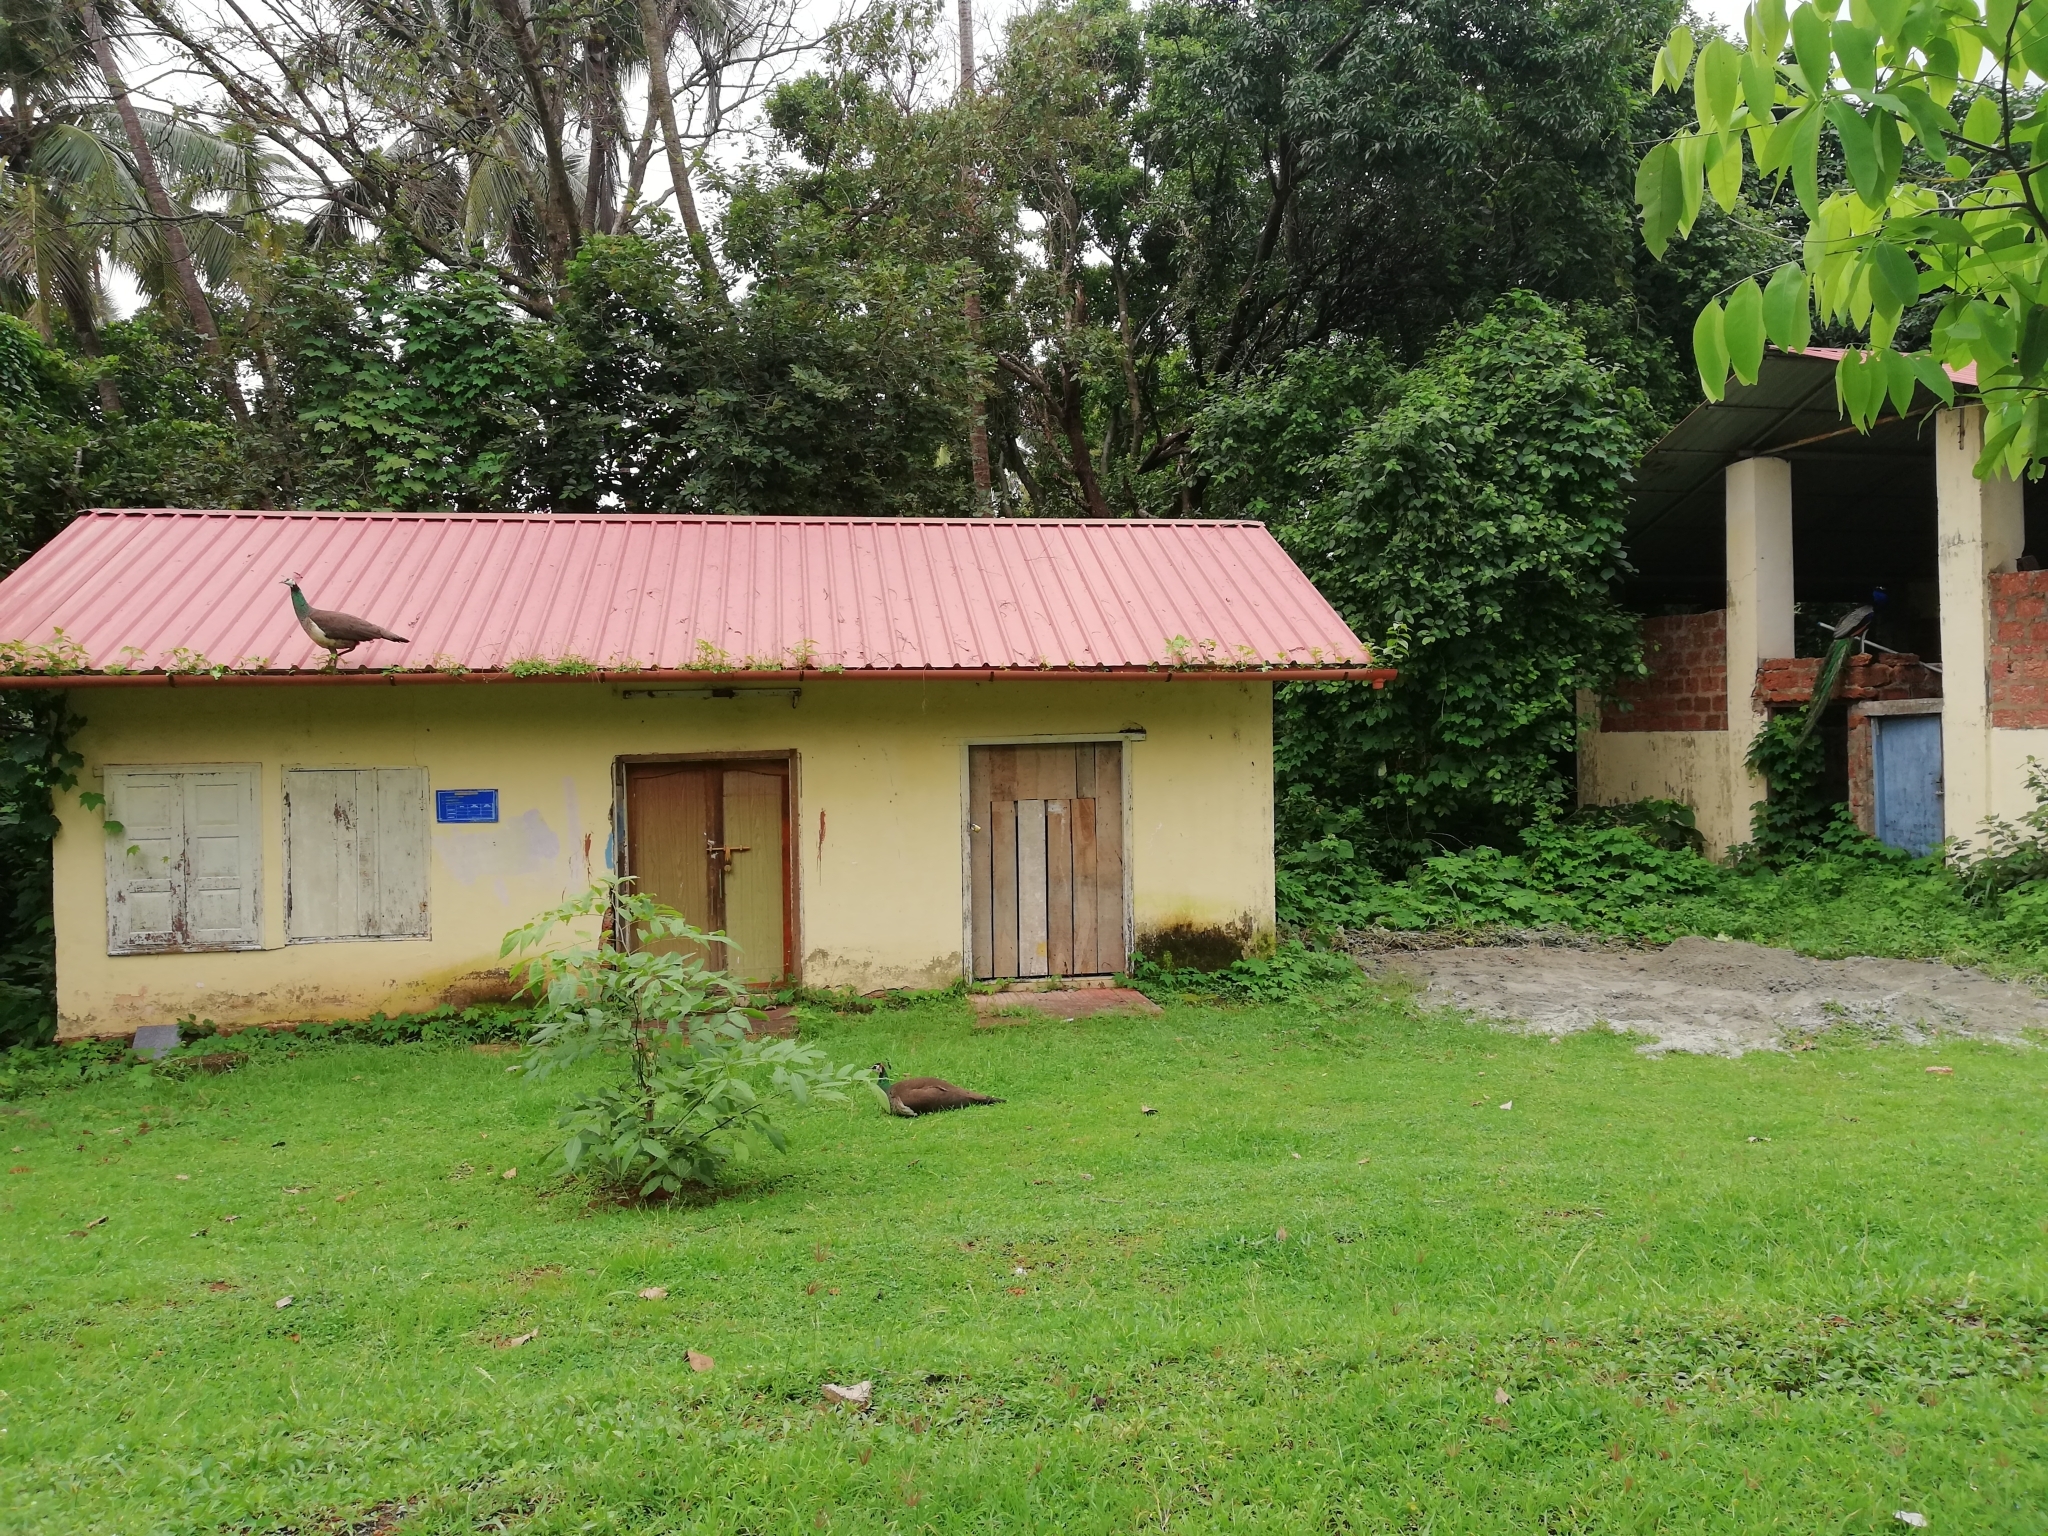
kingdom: Animalia
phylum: Chordata
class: Aves
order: Galliformes
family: Phasianidae
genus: Pavo
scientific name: Pavo cristatus
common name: Indian peafowl
